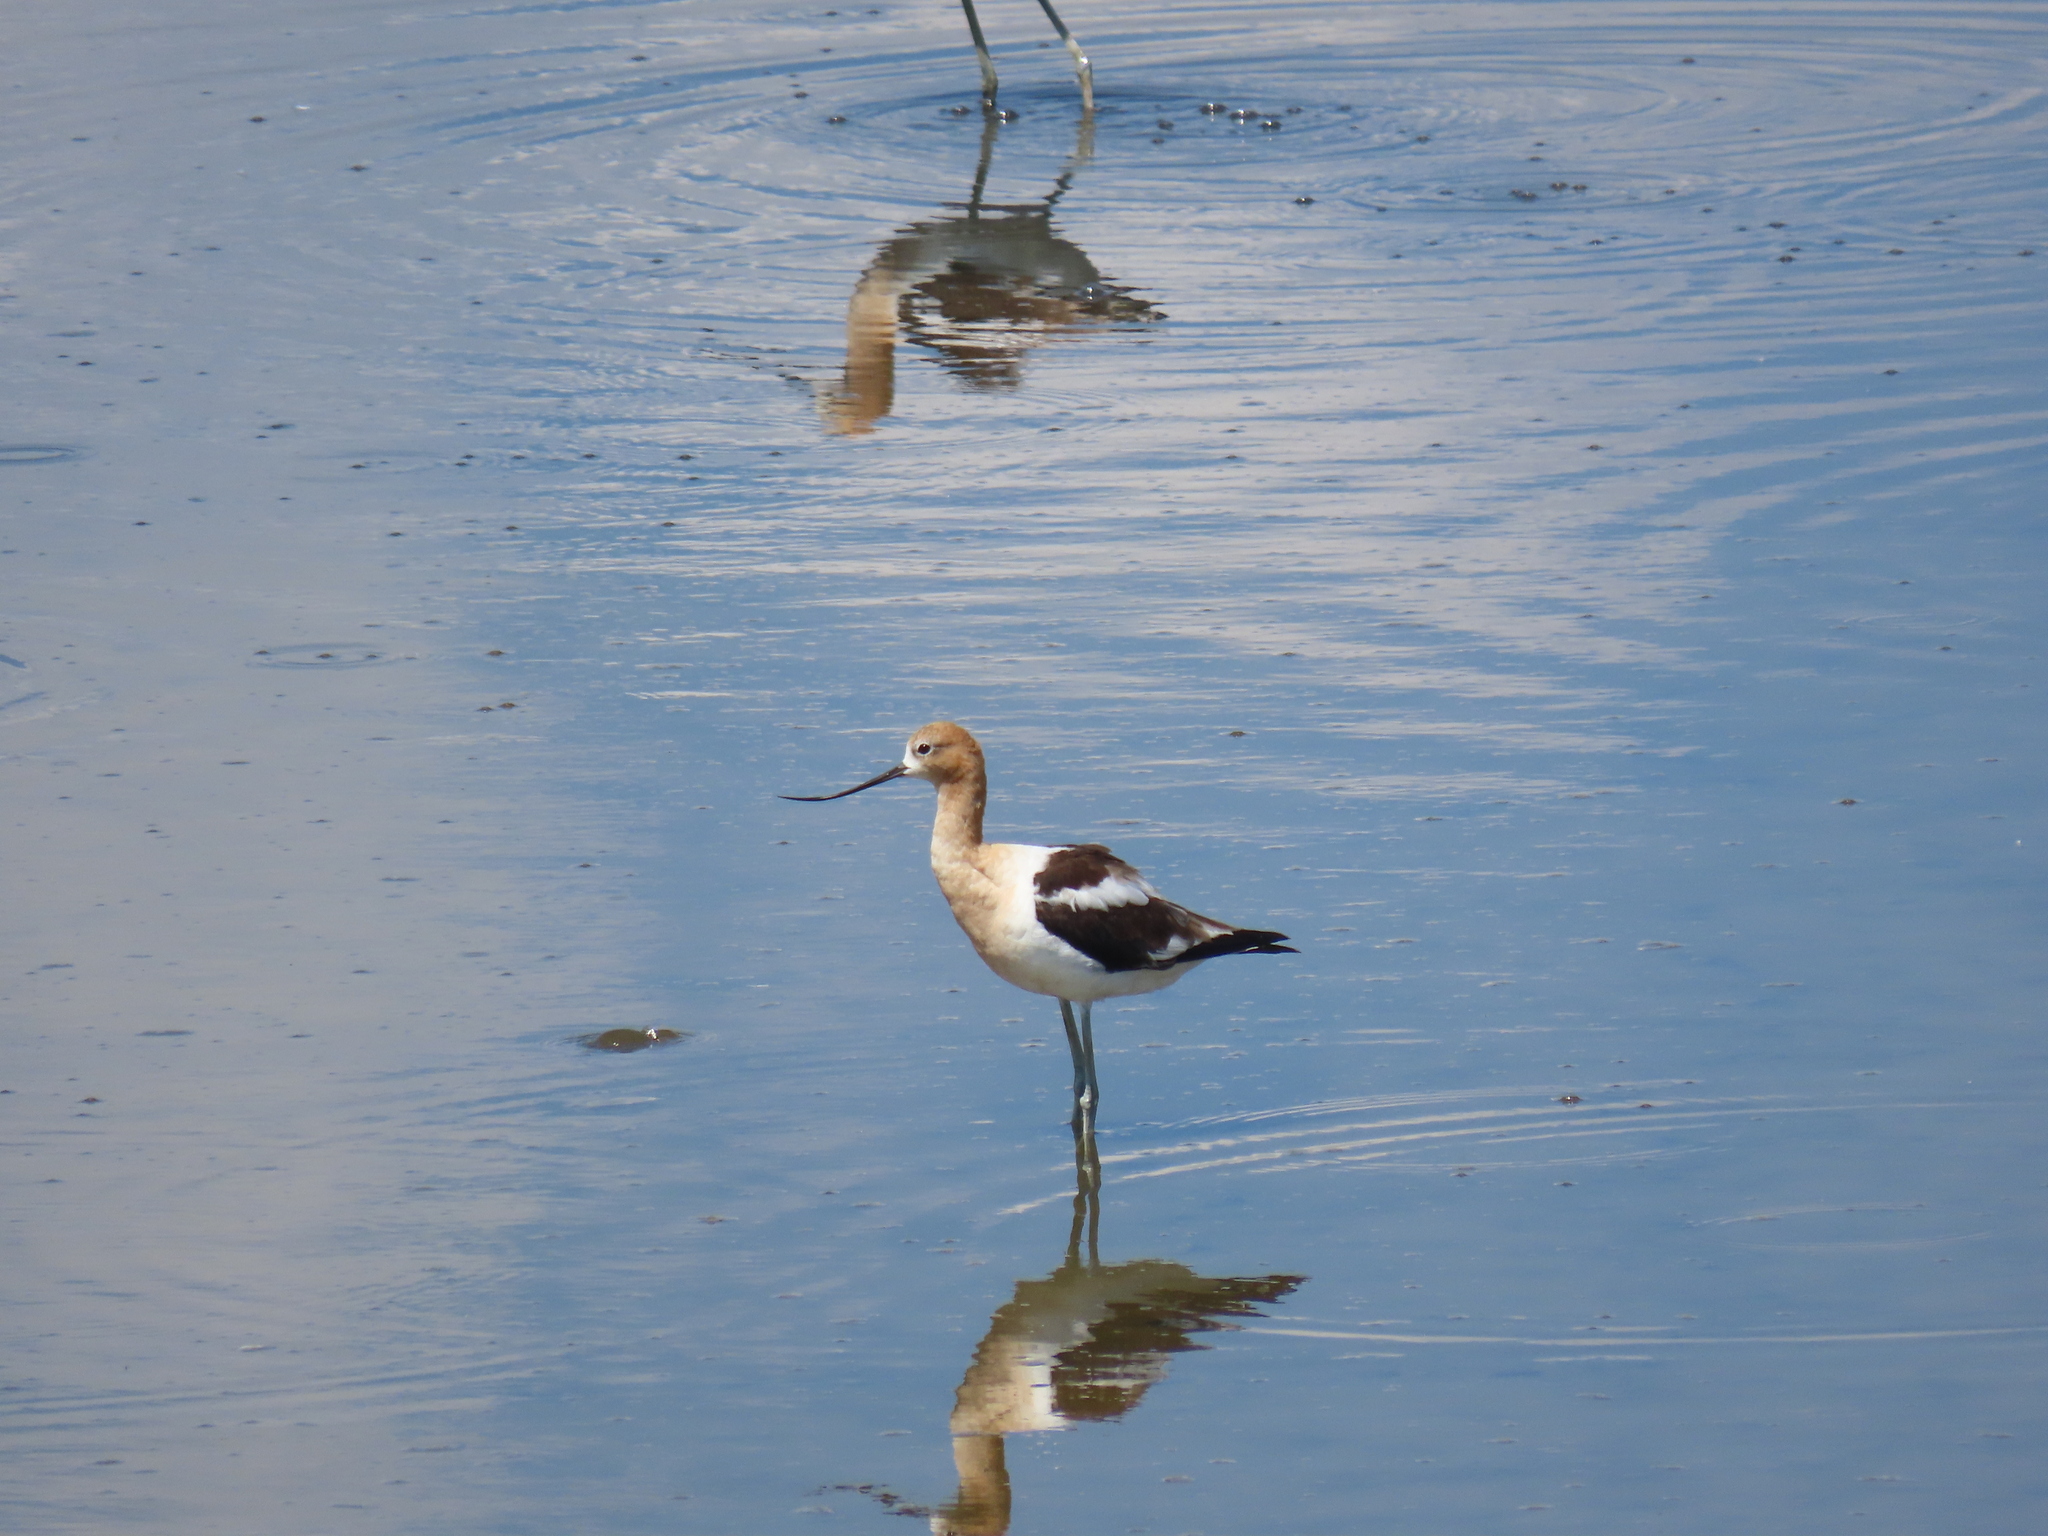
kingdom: Animalia
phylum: Chordata
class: Aves
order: Charadriiformes
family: Recurvirostridae
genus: Recurvirostra
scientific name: Recurvirostra americana
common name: American avocet
